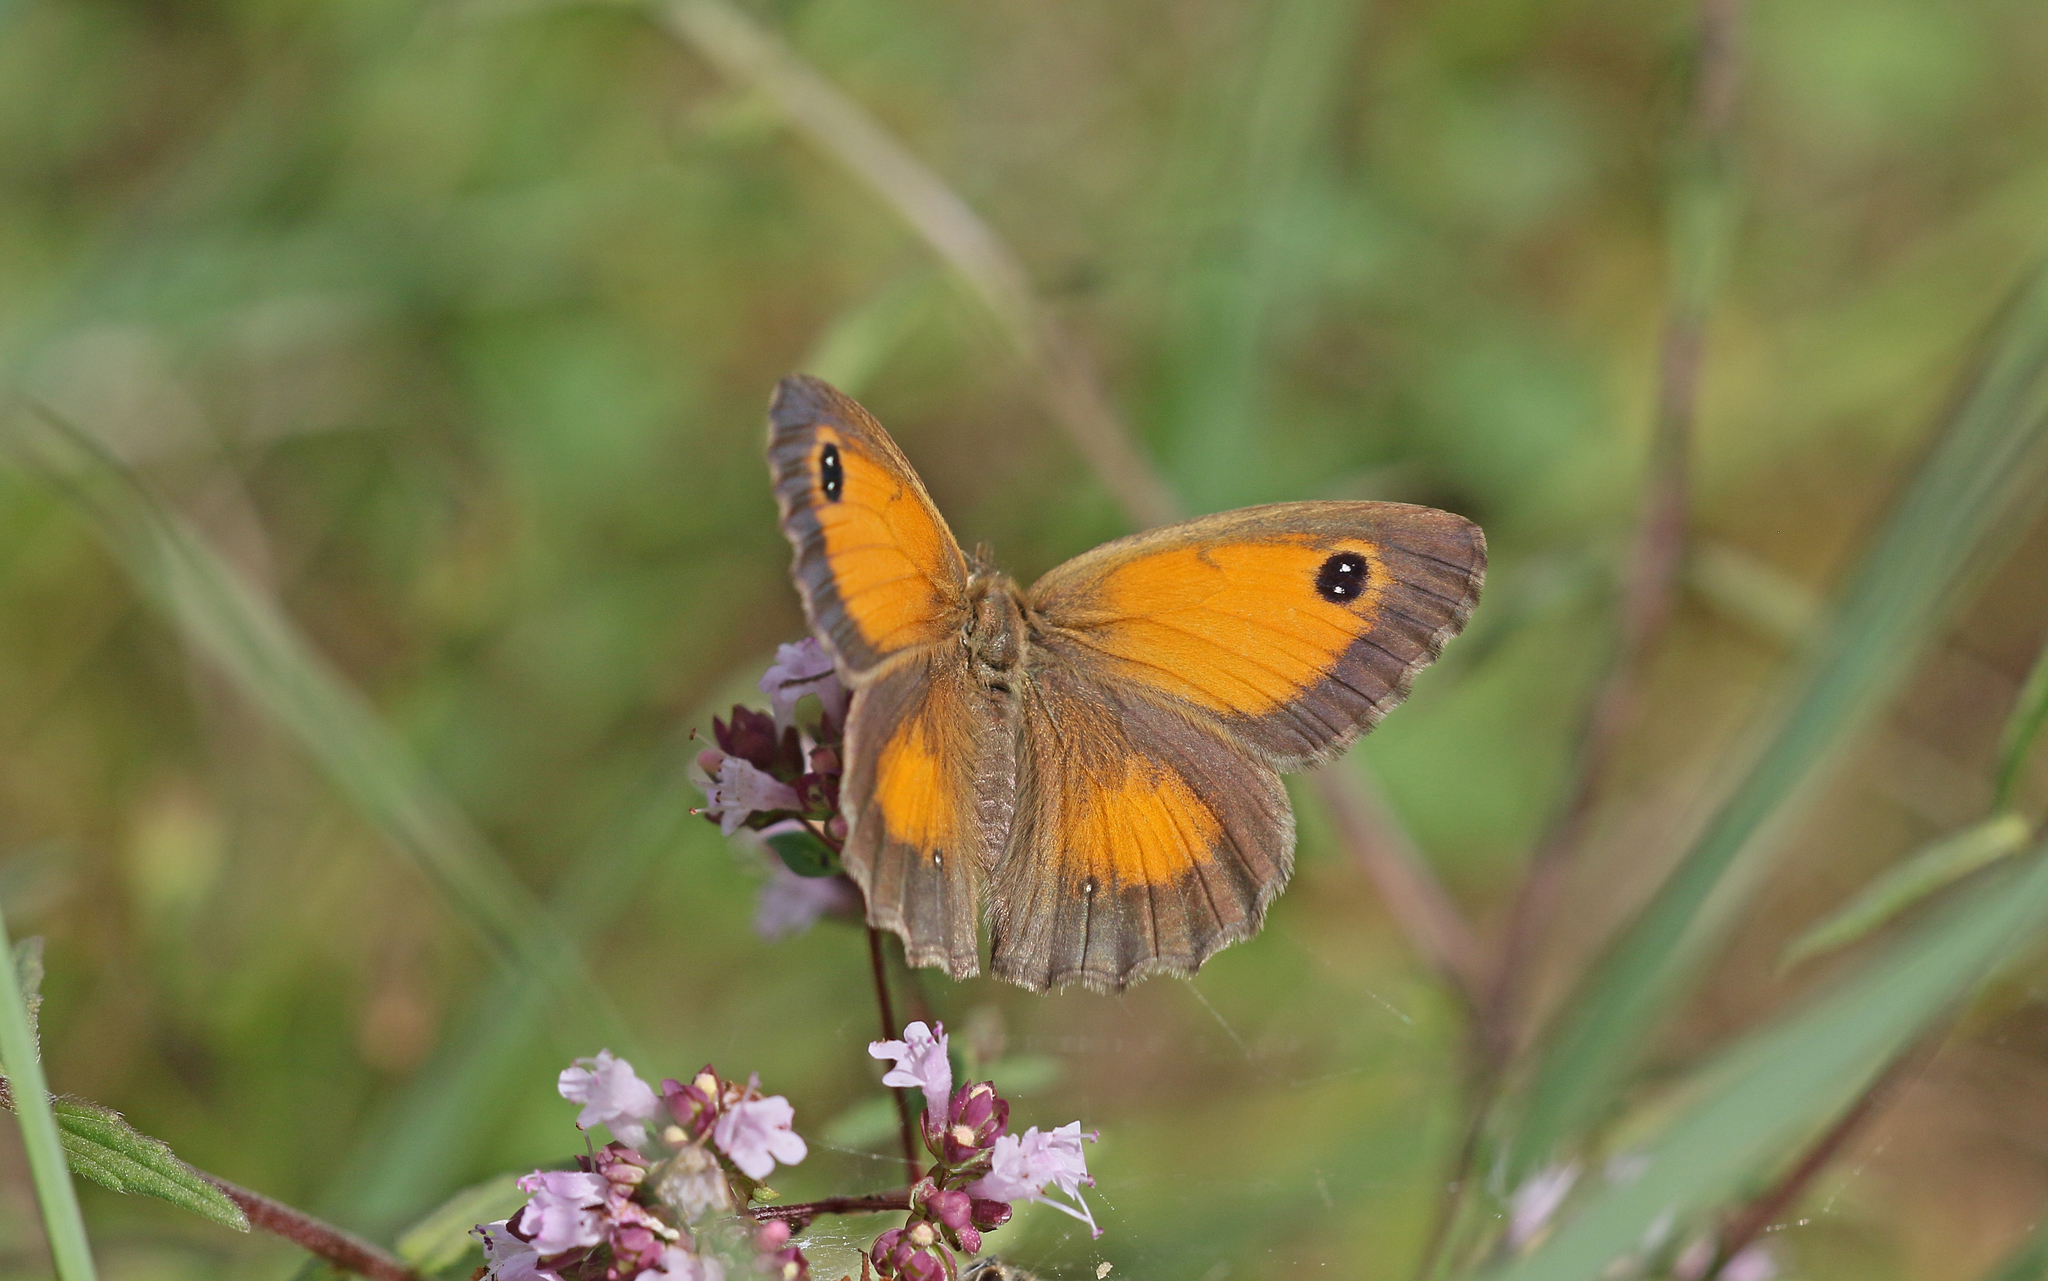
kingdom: Animalia
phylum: Arthropoda
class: Insecta
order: Lepidoptera
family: Nymphalidae
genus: Pyronia
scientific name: Pyronia cecilia
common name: Southern gatekeeper
